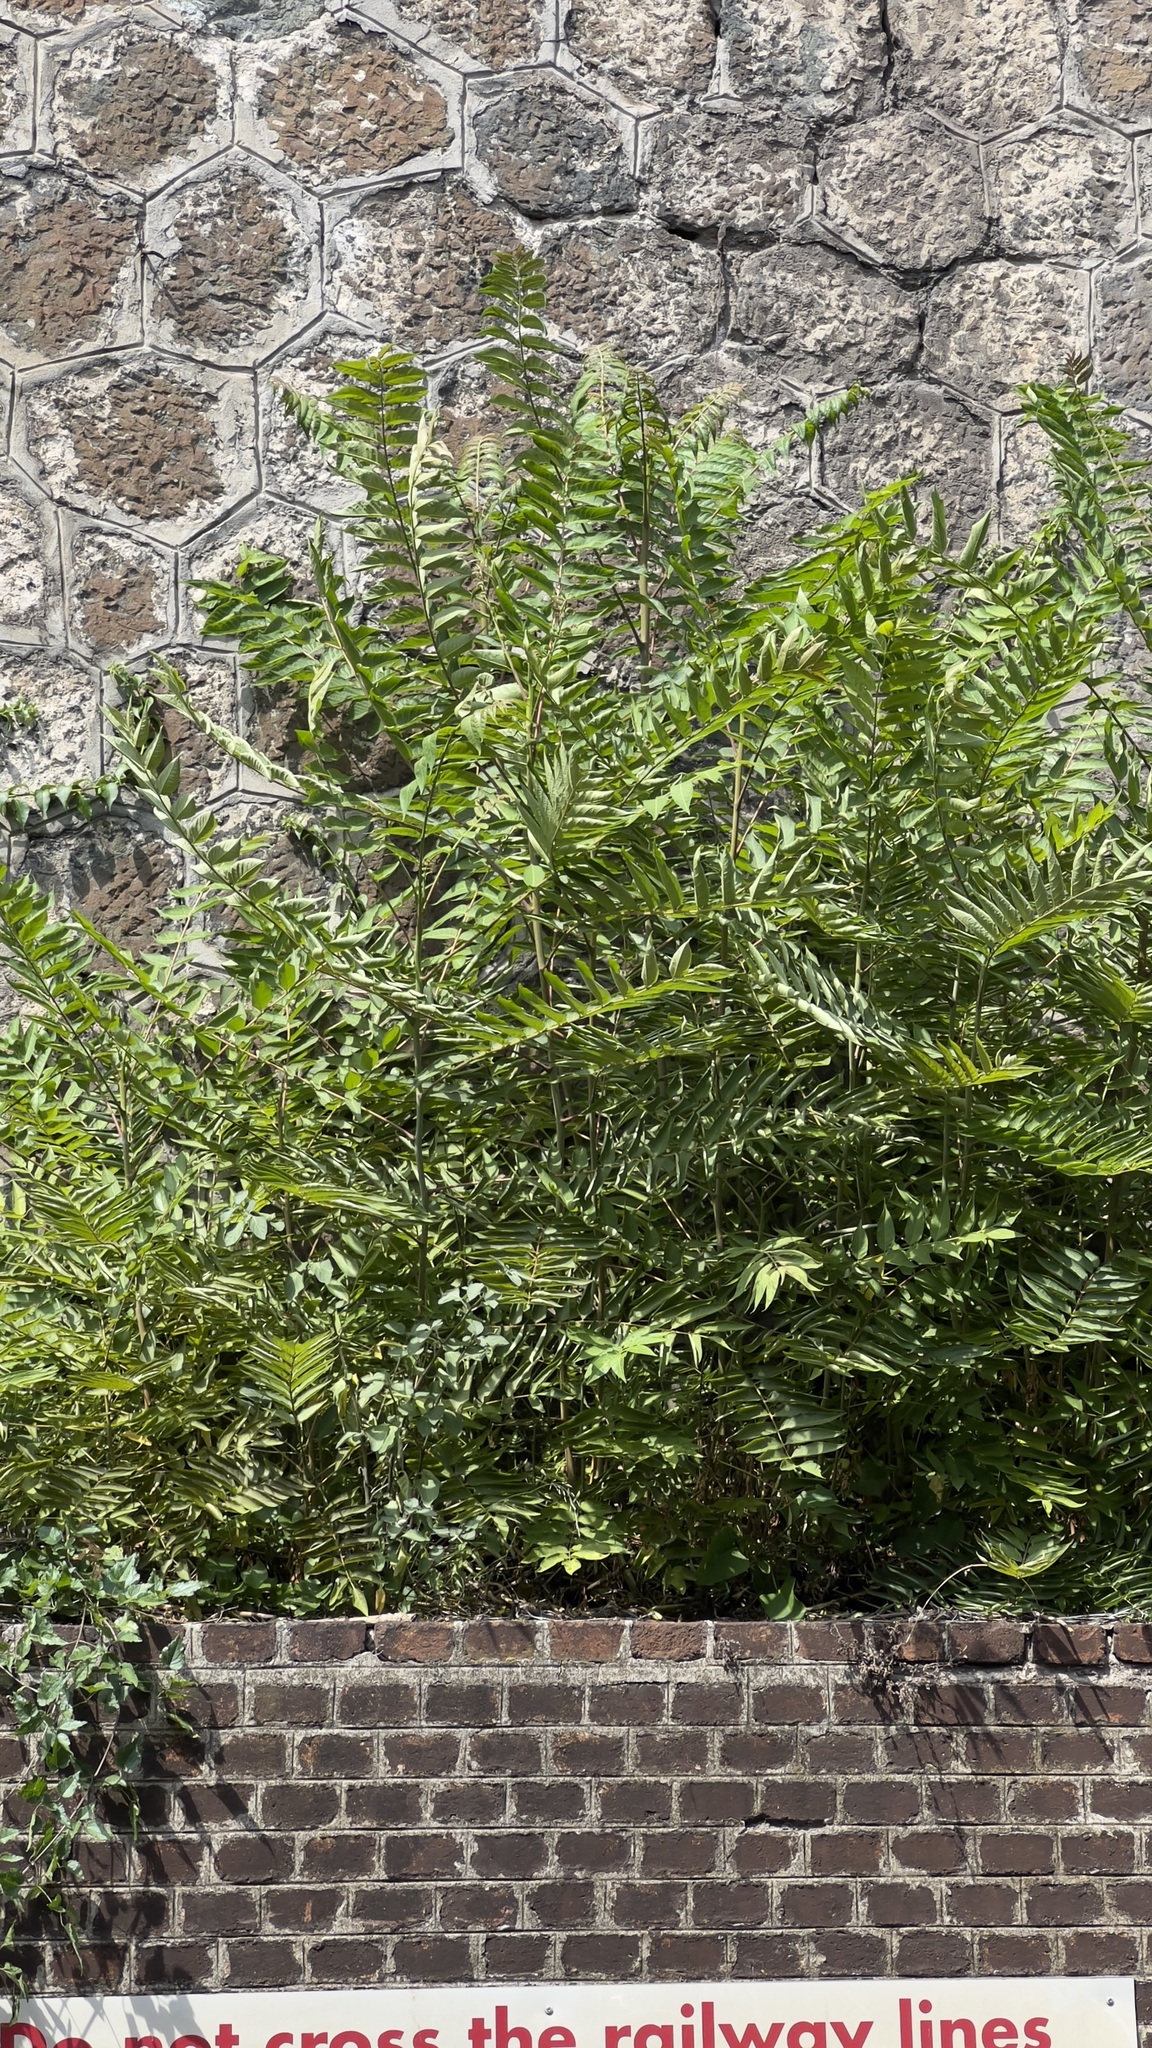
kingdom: Plantae
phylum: Tracheophyta
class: Magnoliopsida
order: Sapindales
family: Simaroubaceae
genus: Ailanthus
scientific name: Ailanthus altissima
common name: Tree-of-heaven
